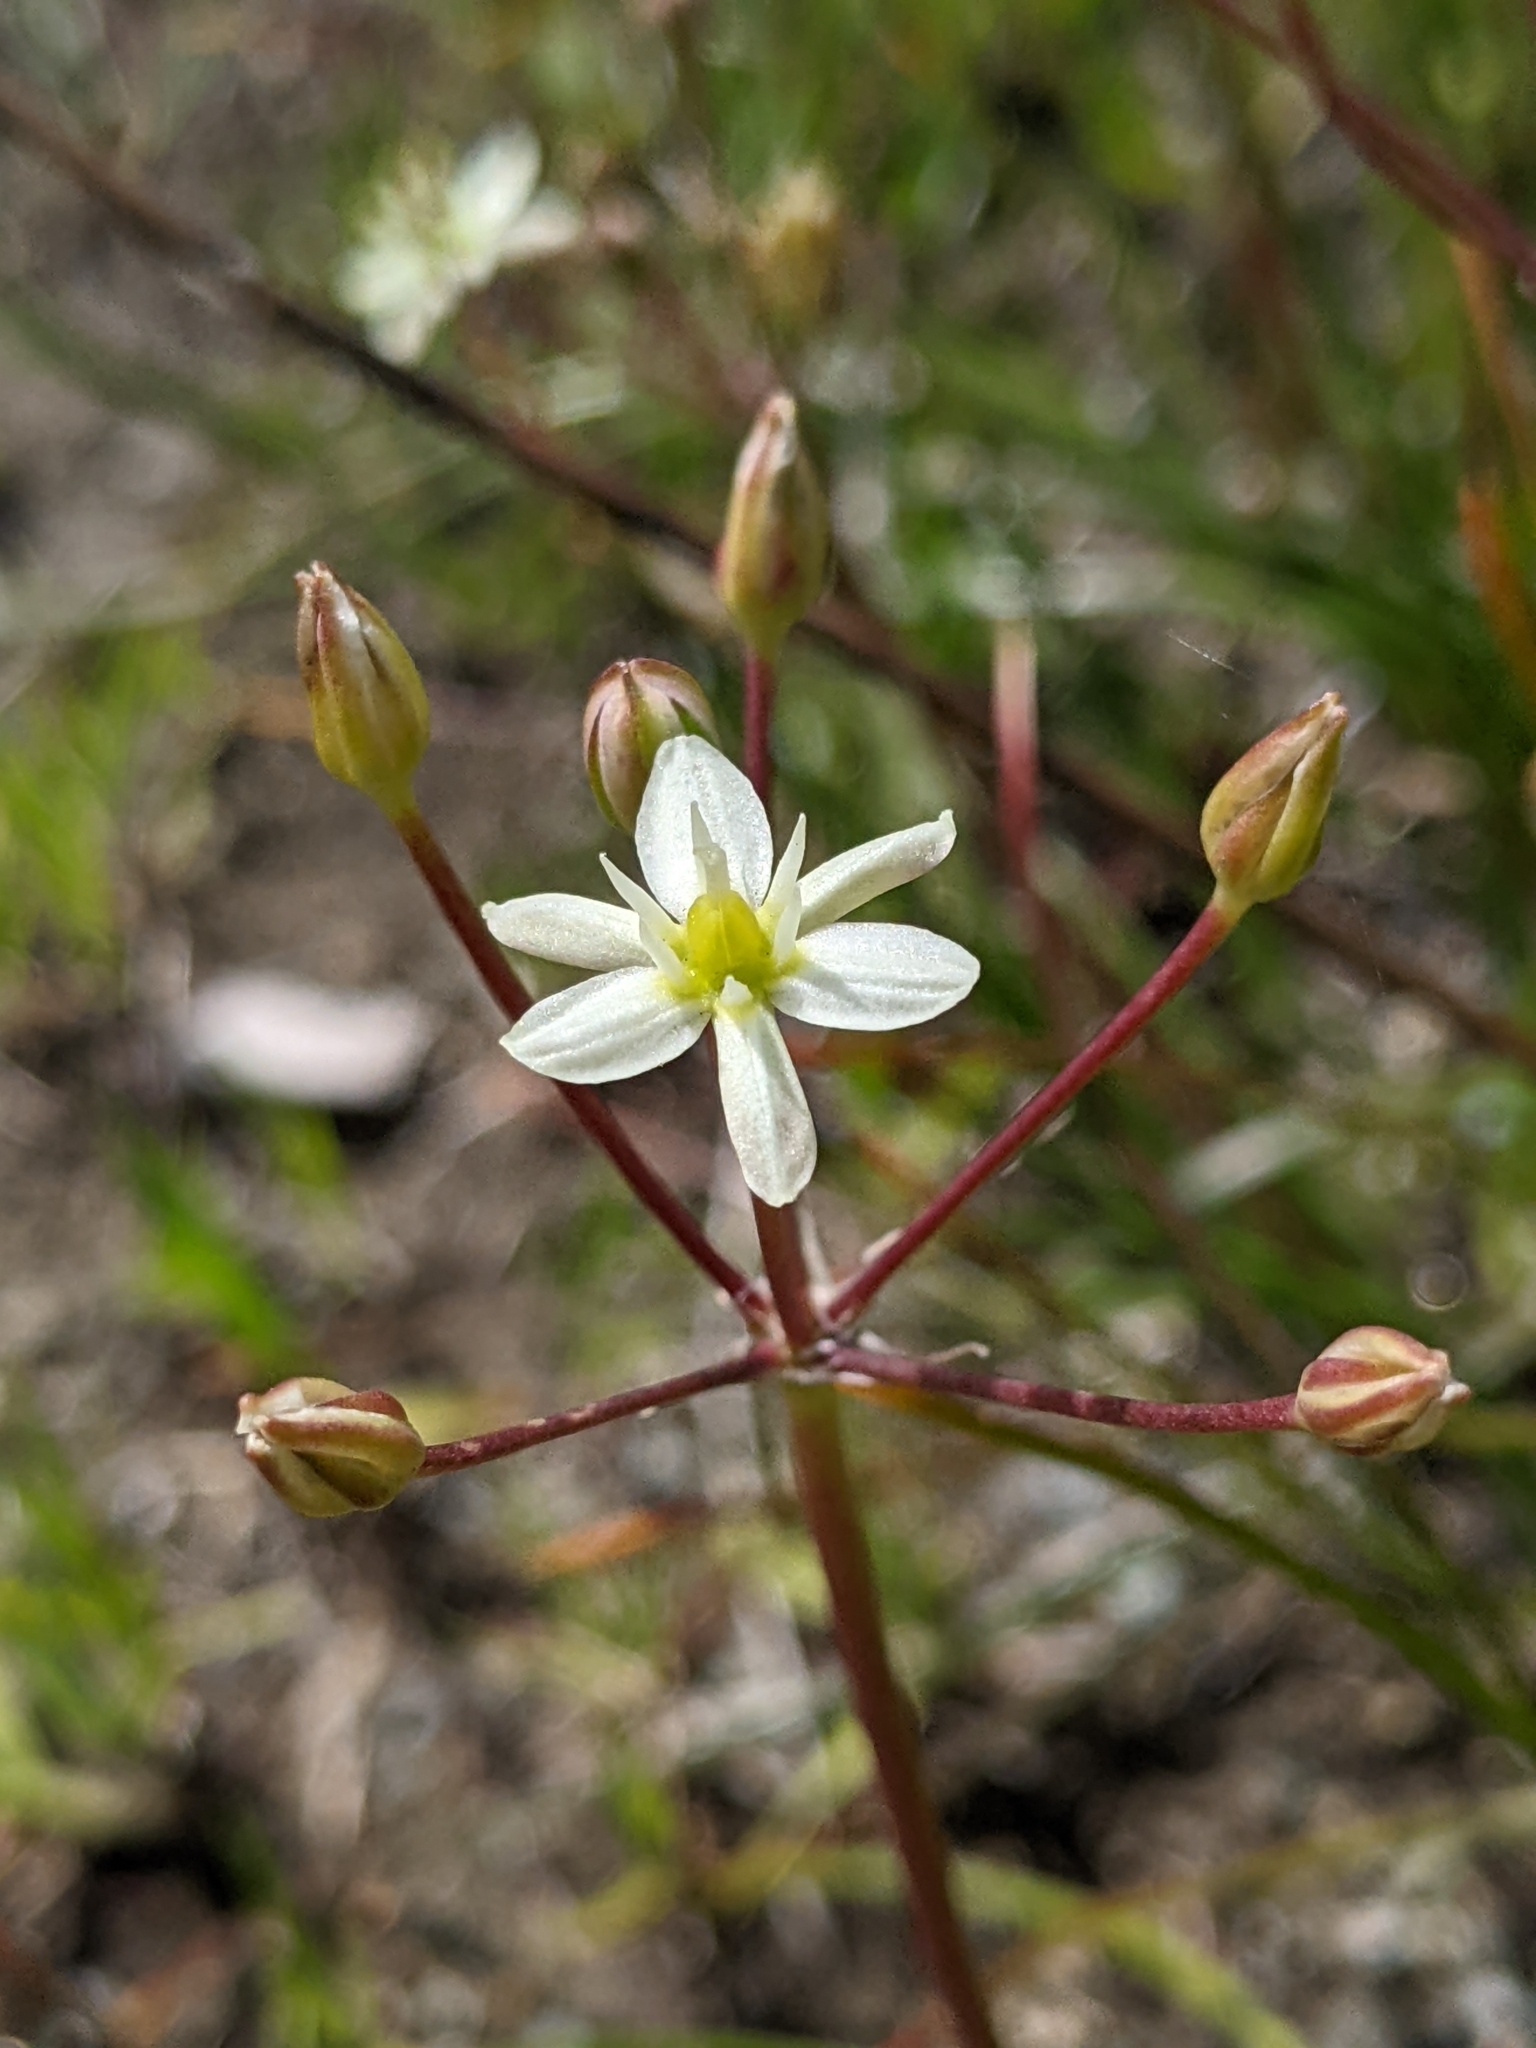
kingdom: Plantae
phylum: Tracheophyta
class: Liliopsida
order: Asparagales
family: Asparagaceae
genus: Muilla
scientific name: Muilla maritima
